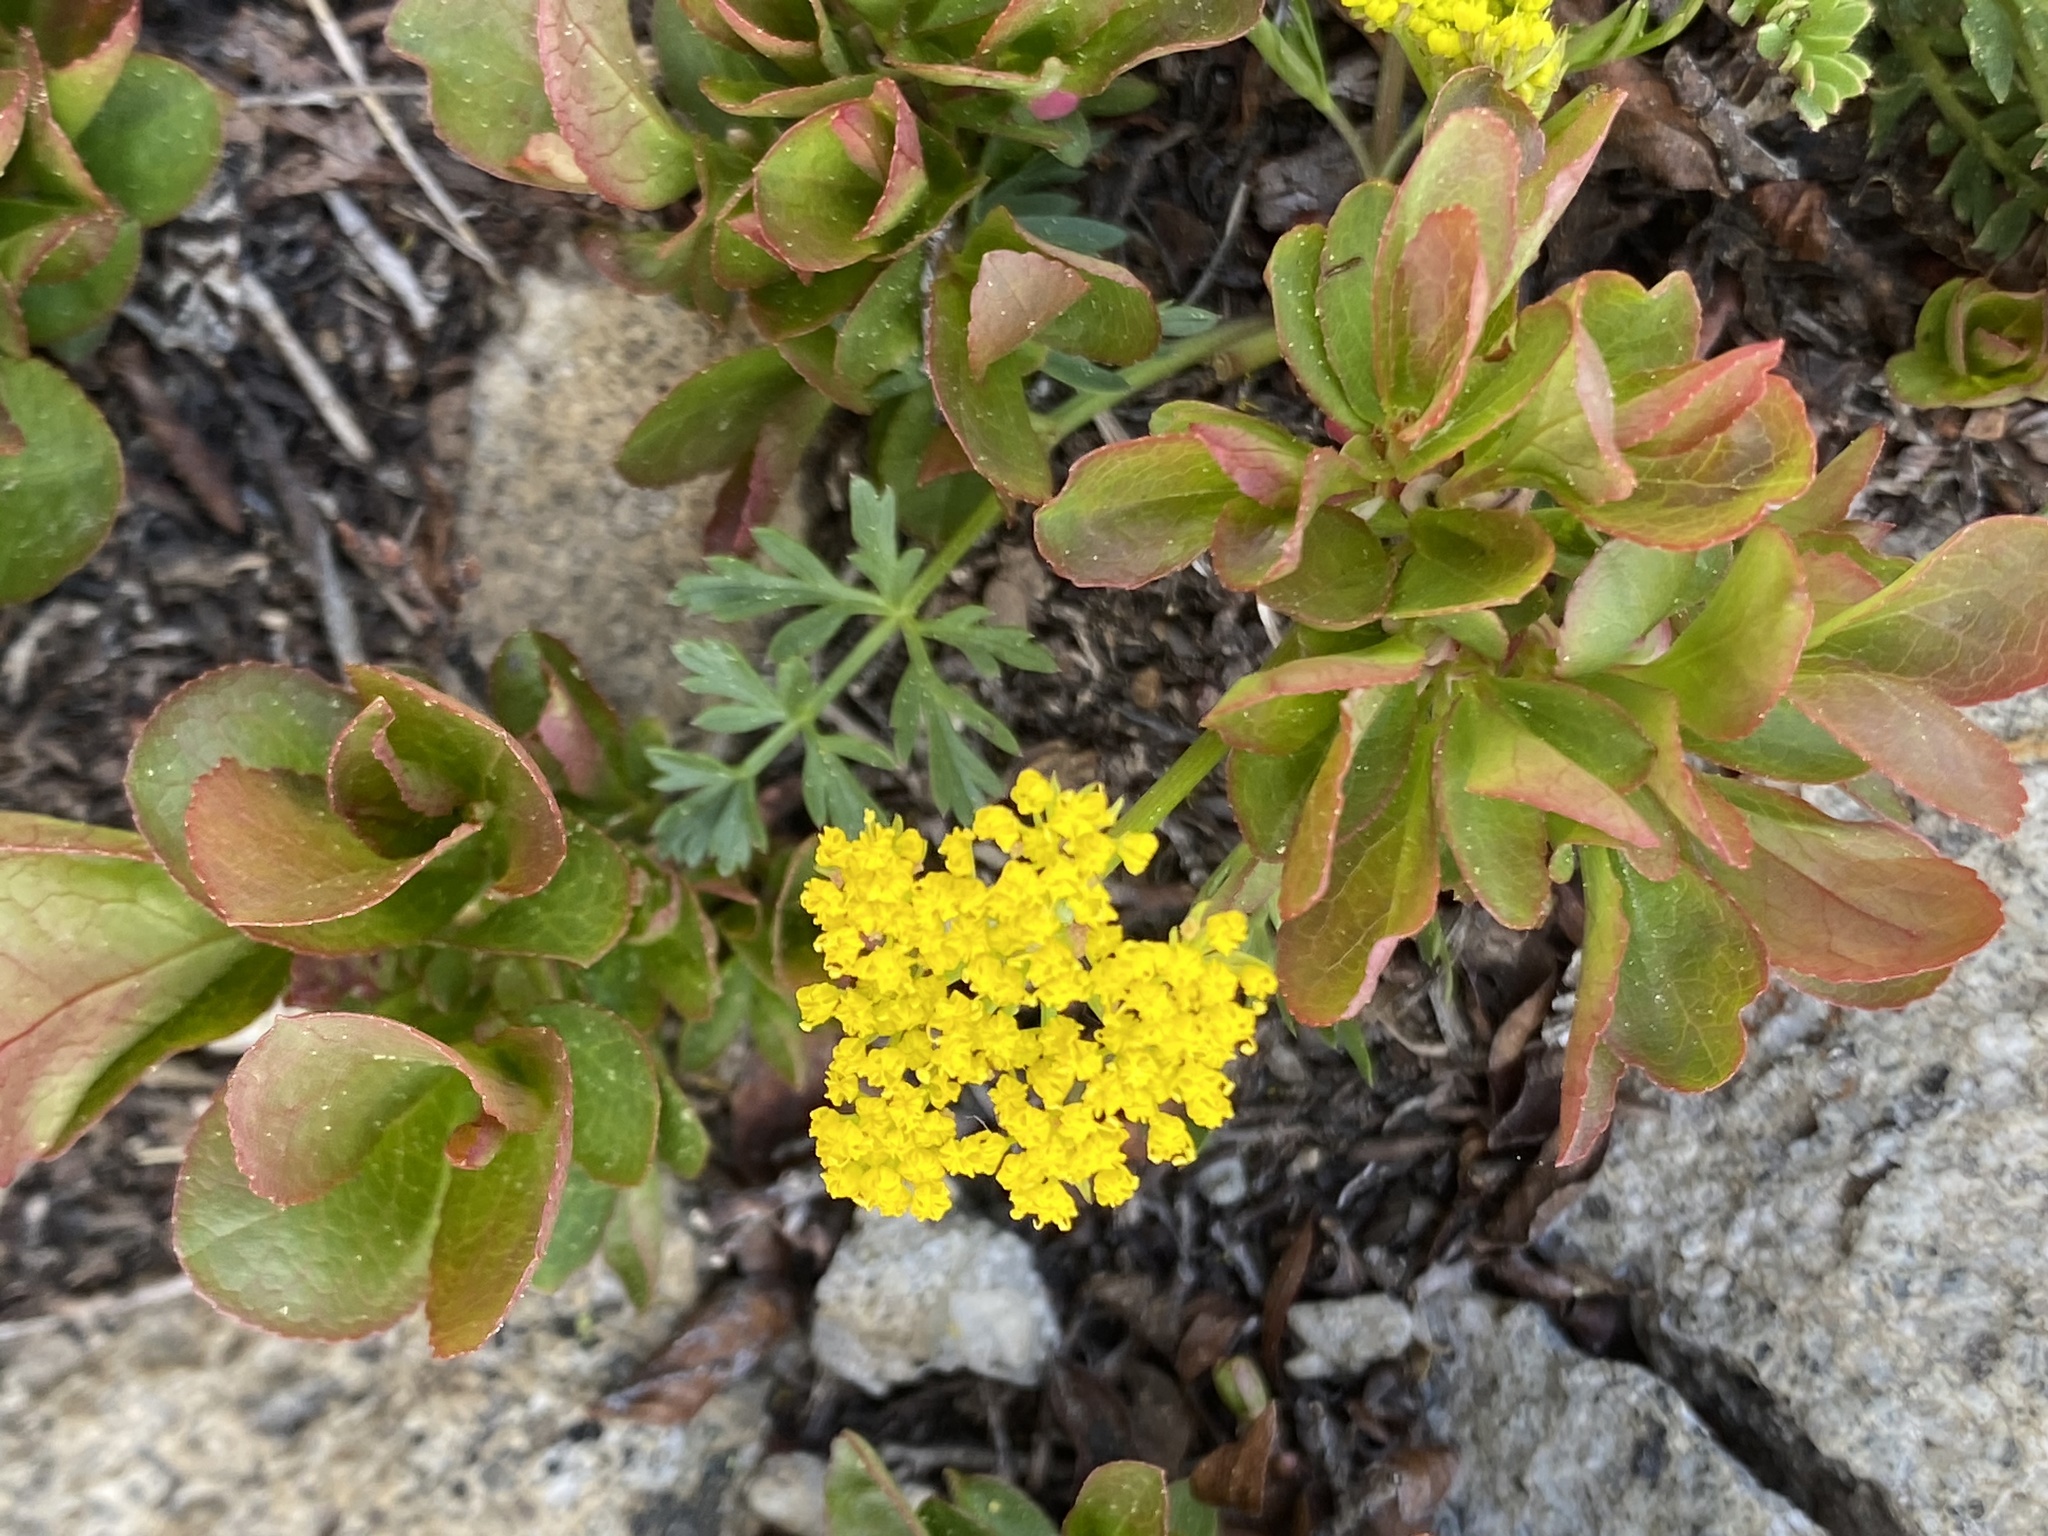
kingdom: Plantae
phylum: Tracheophyta
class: Magnoliopsida
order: Apiales
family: Apiaceae
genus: Cymopterus
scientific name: Cymopterus lemmonii
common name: Lemmon's spring-parsley
